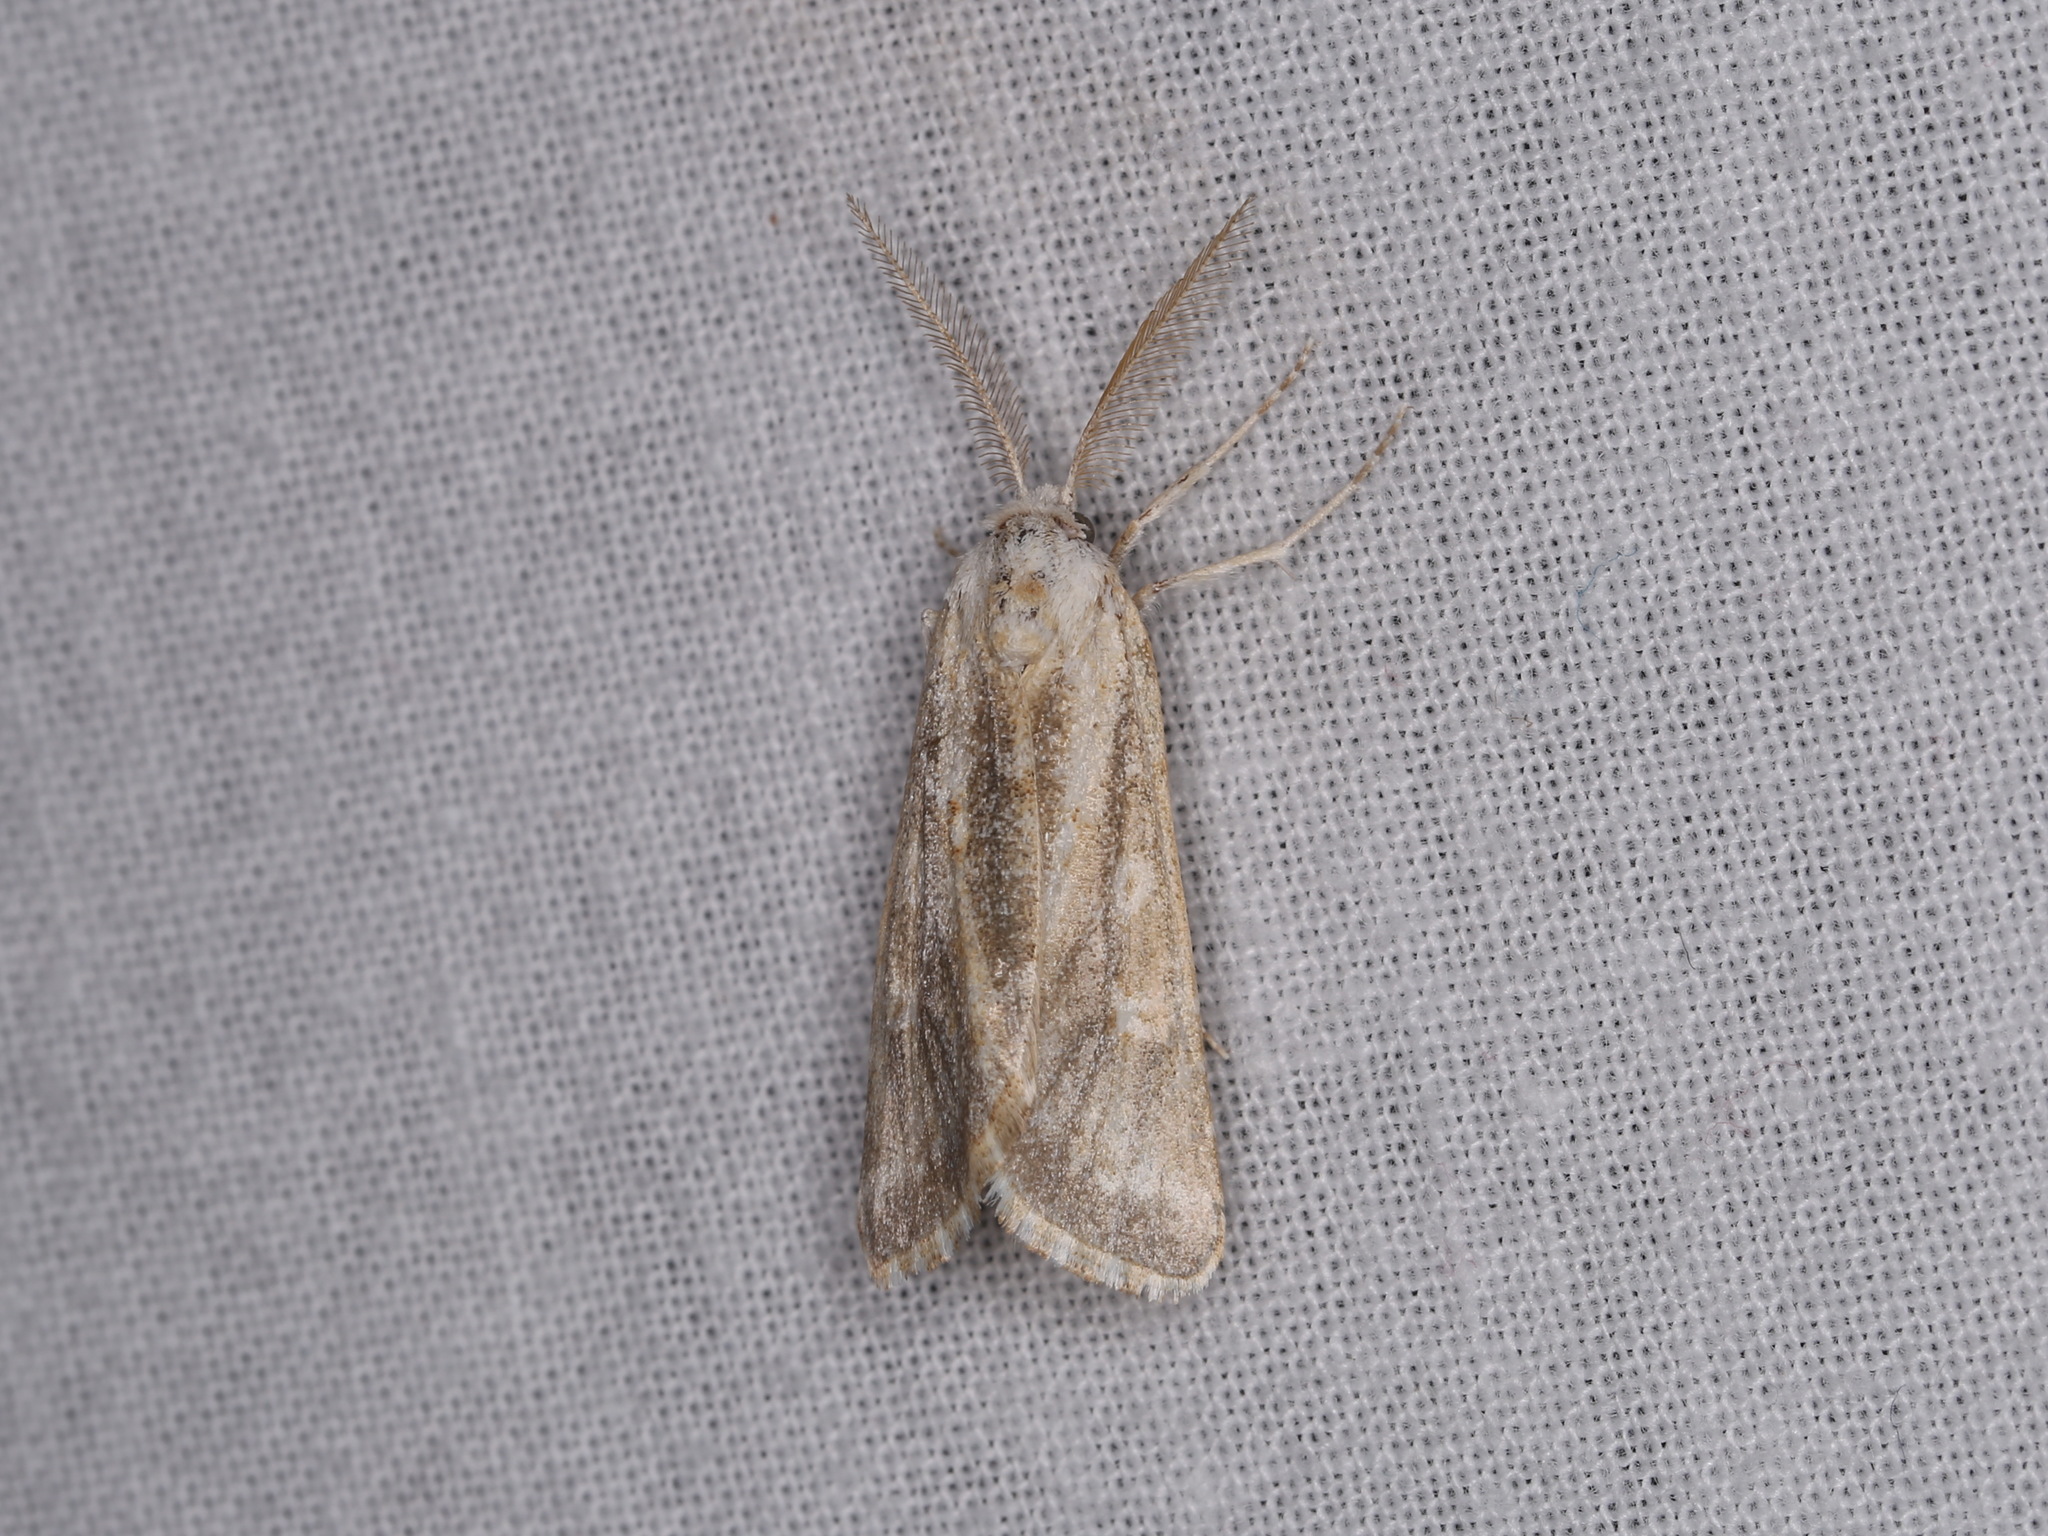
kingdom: Animalia
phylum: Arthropoda
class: Insecta
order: Lepidoptera
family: Noctuidae
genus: Eremochroa
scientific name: Eremochroa alphitias
